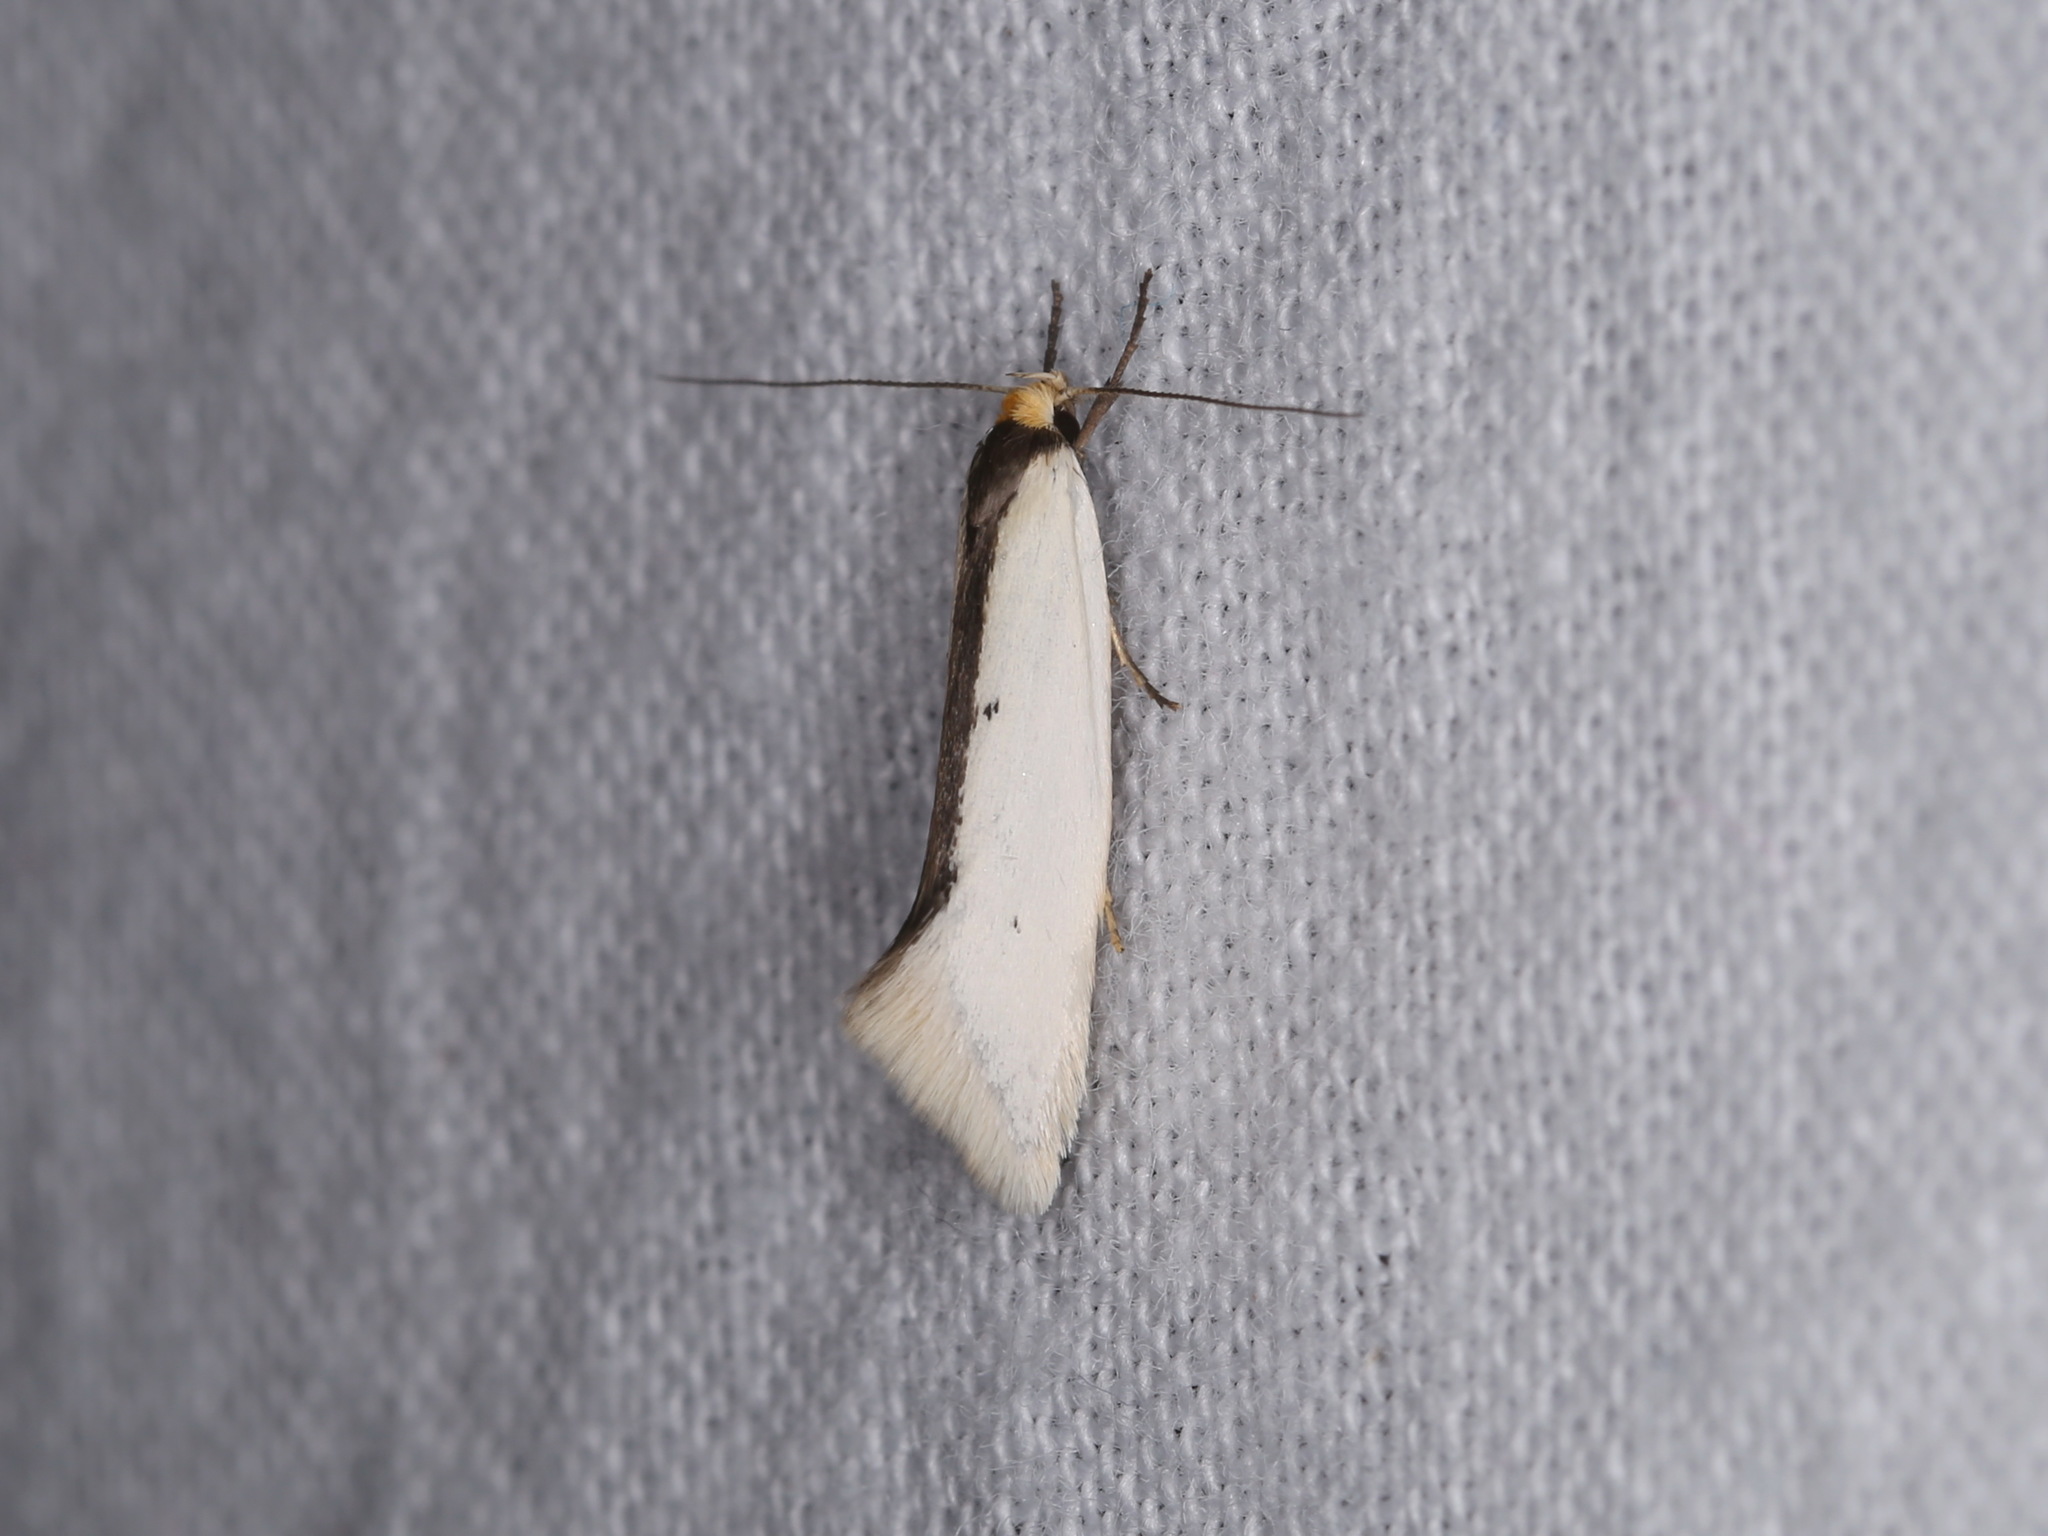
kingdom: Animalia
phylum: Arthropoda
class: Insecta
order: Lepidoptera
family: Oecophoridae
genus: Ocystola
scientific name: Ocystola chionea
